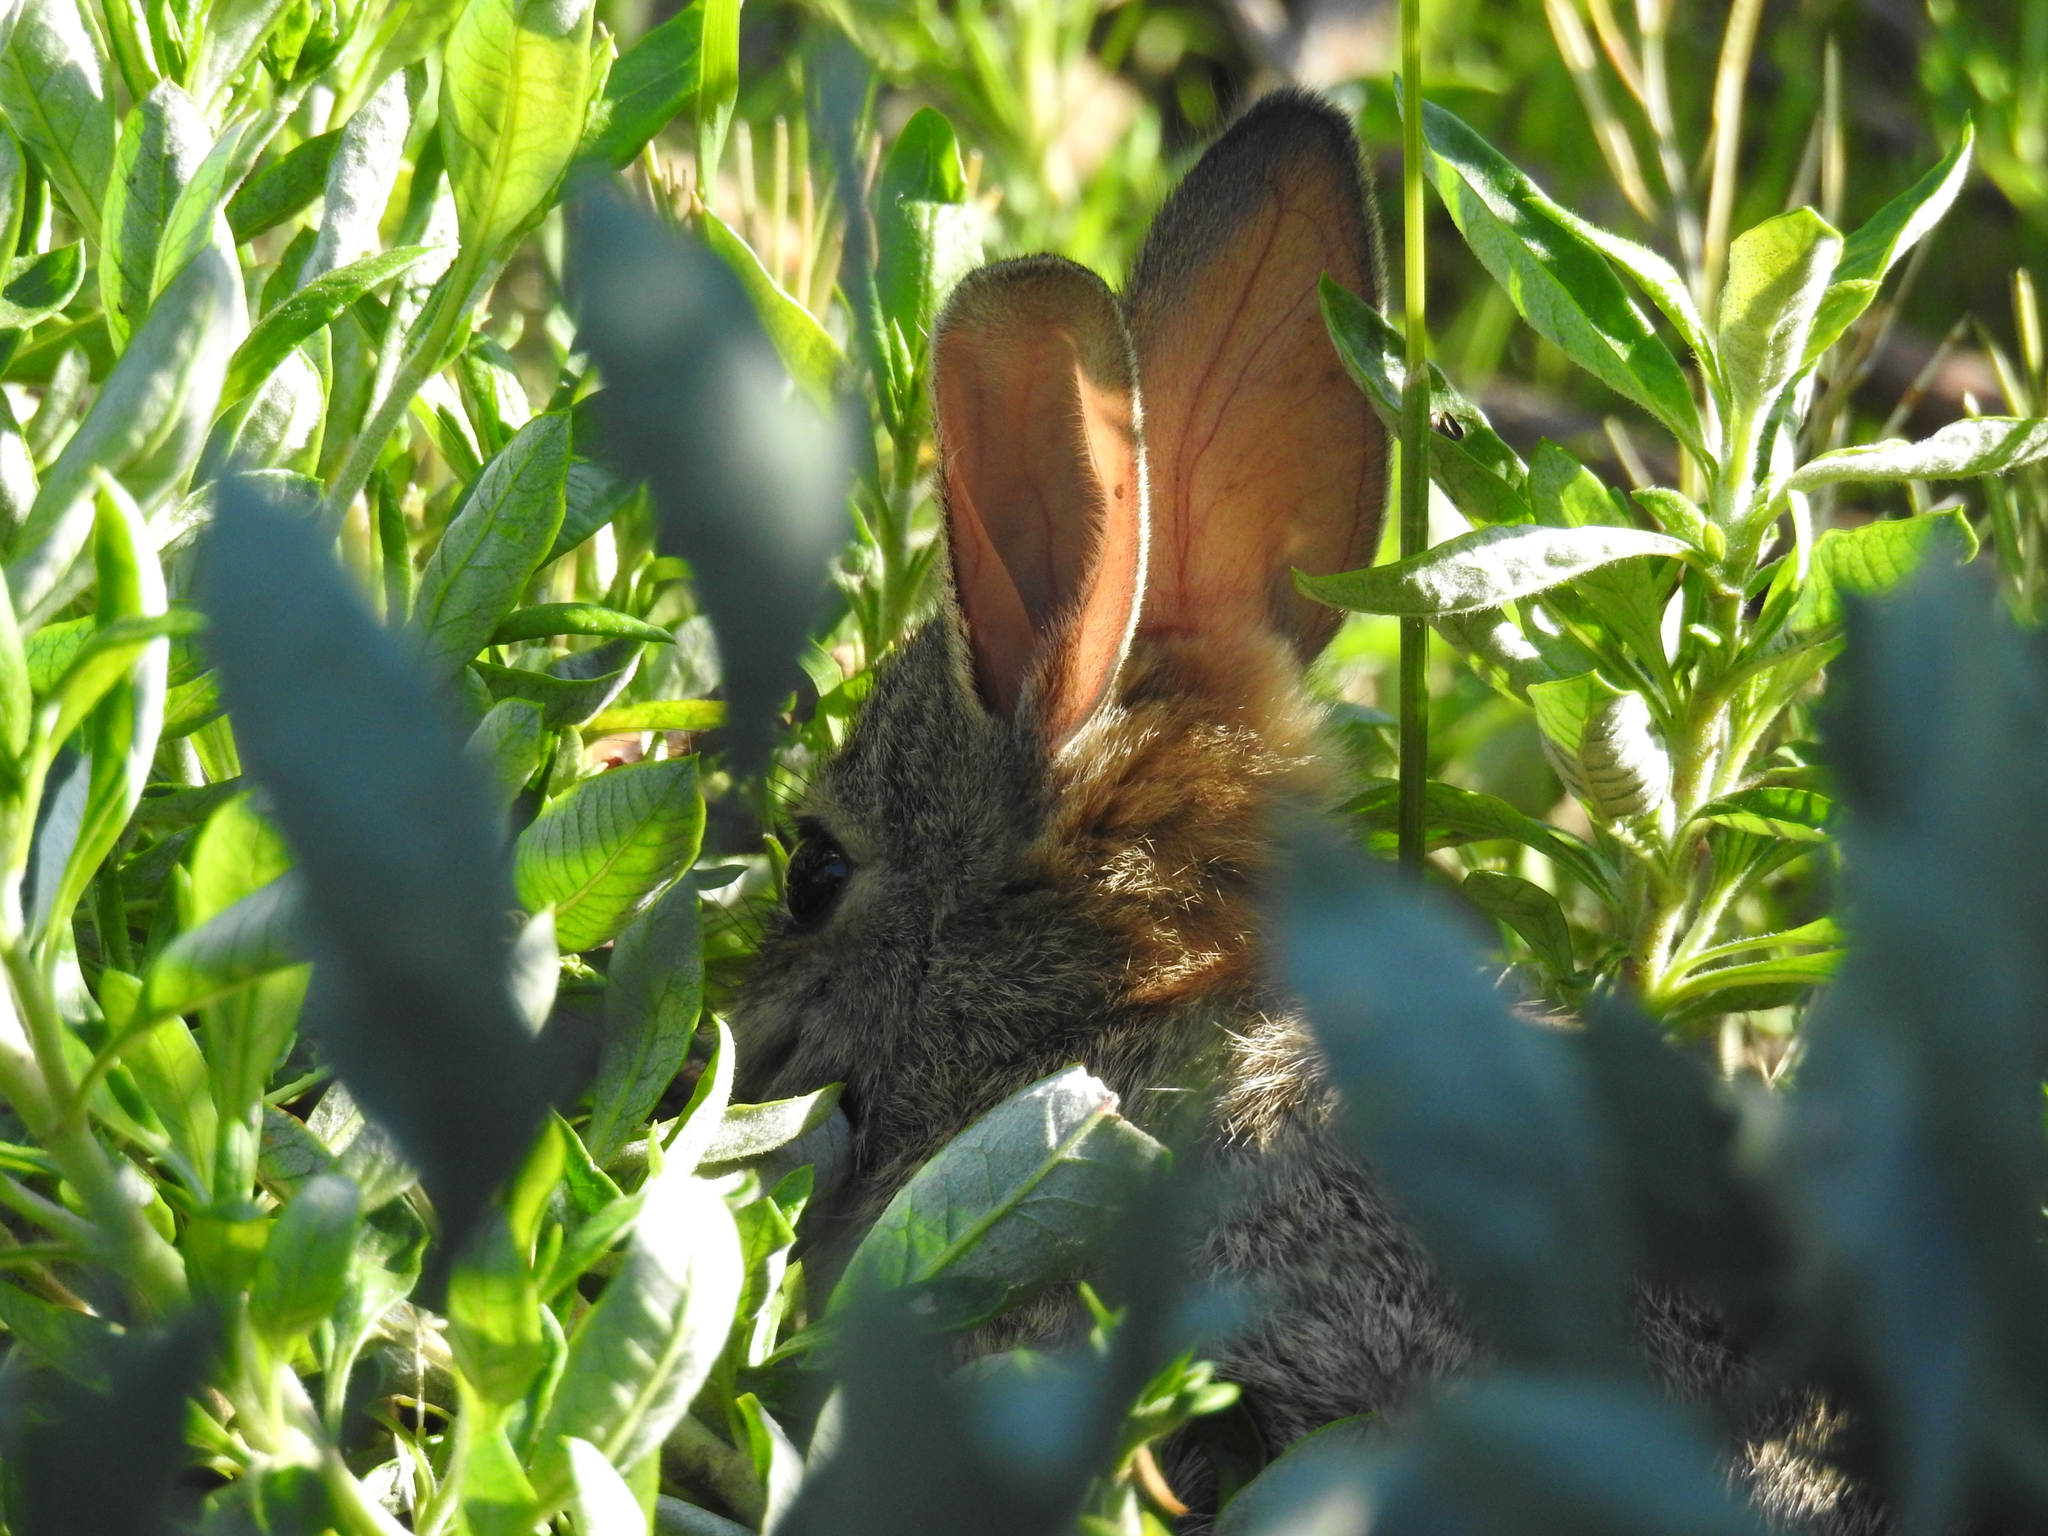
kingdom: Animalia
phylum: Chordata
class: Mammalia
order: Lagomorpha
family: Leporidae
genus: Sylvilagus
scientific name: Sylvilagus audubonii
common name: Desert cottontail
